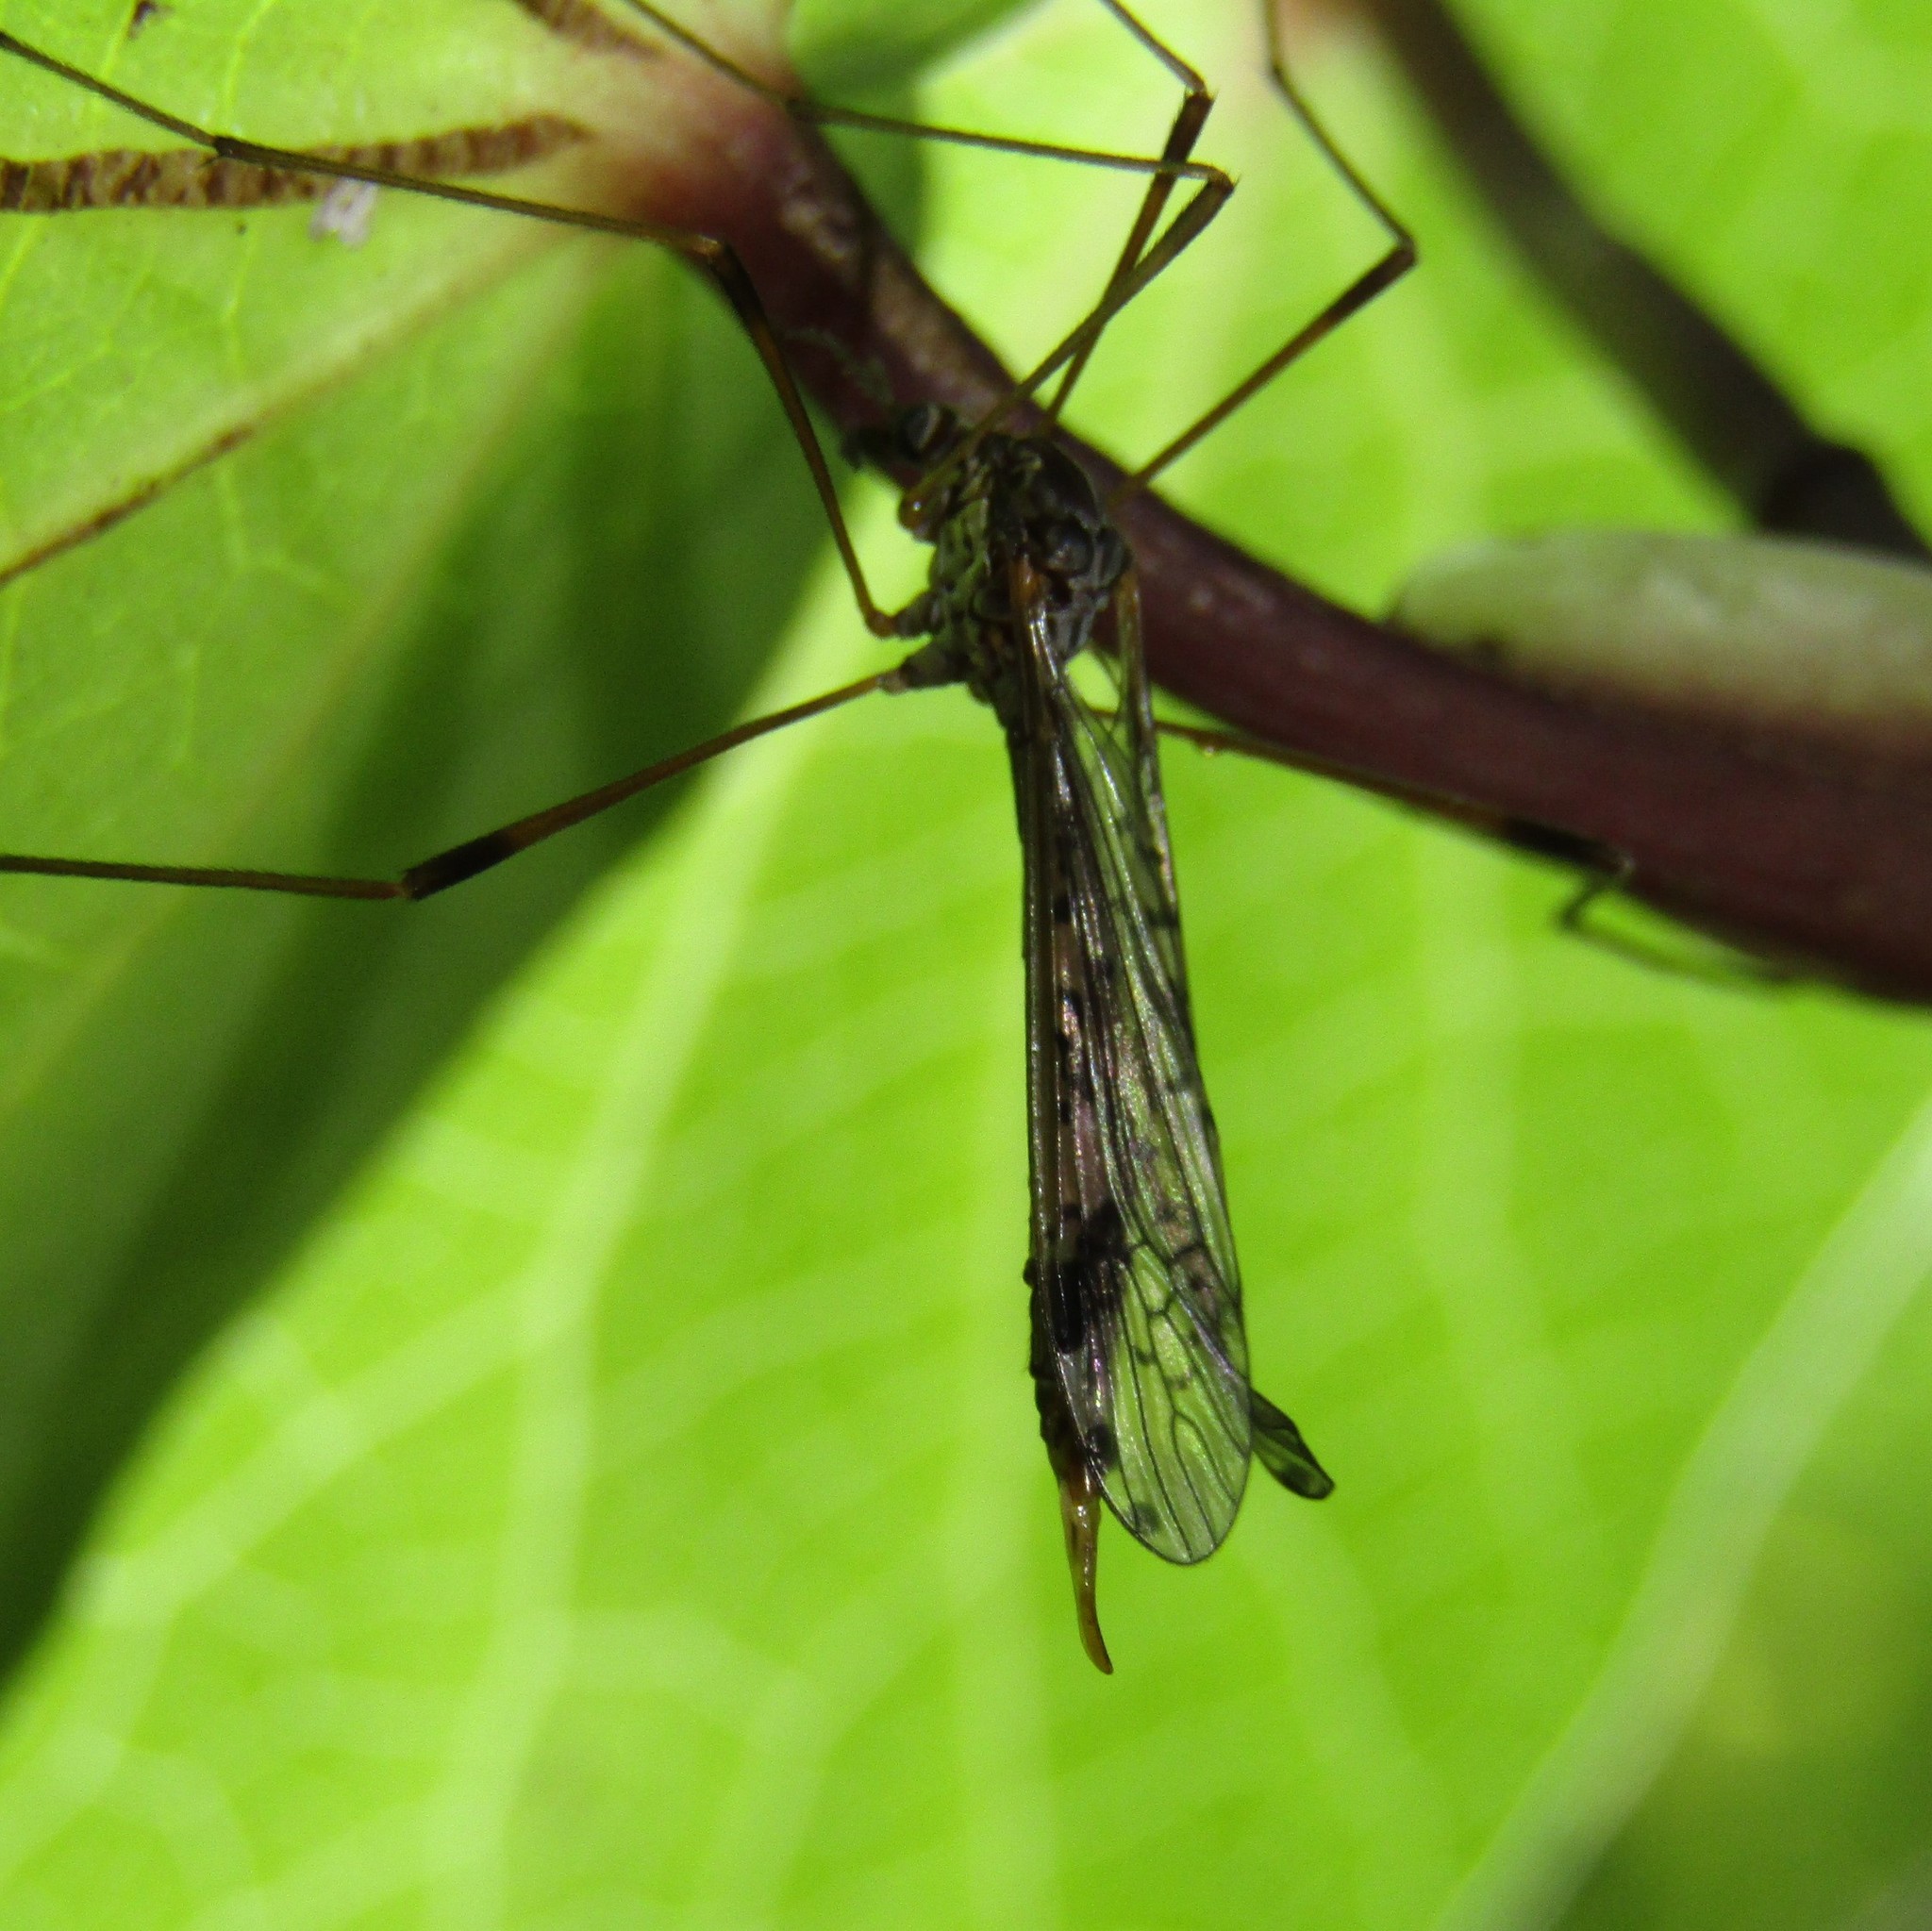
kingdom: Animalia
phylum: Arthropoda
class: Insecta
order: Diptera
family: Limoniidae
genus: Gynoplistia
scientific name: Gynoplistia magnifica
